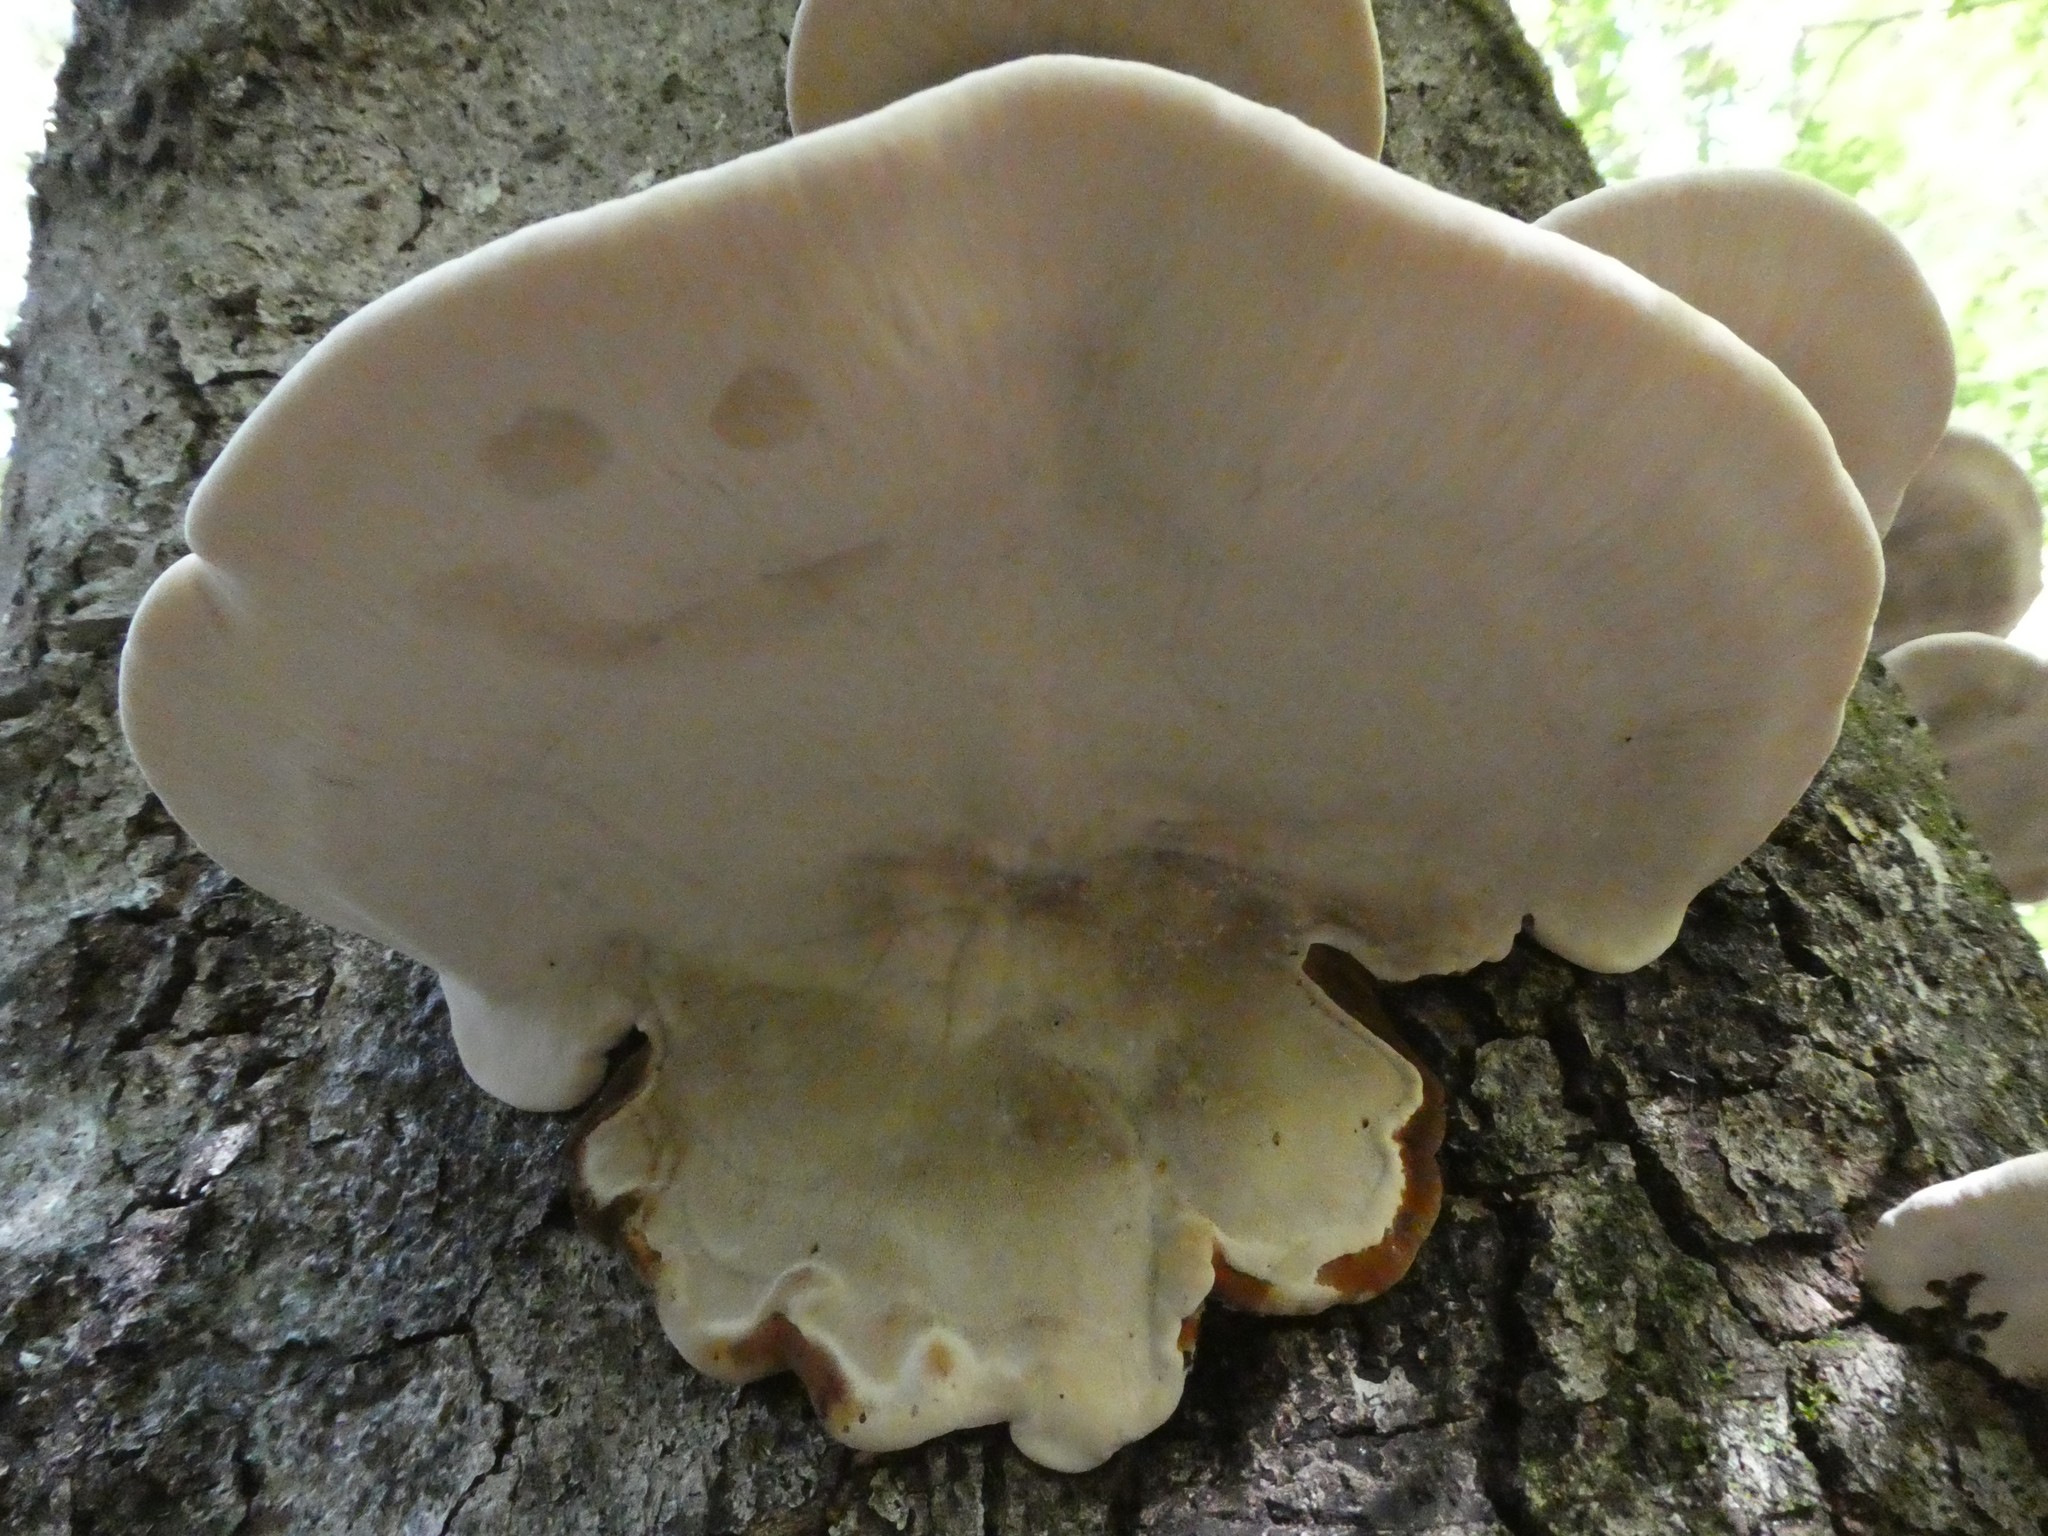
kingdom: Fungi
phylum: Basidiomycota
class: Agaricomycetes
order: Polyporales
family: Ischnodermataceae
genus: Ischnoderma
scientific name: Ischnoderma resinosum
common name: Resinous polypore
